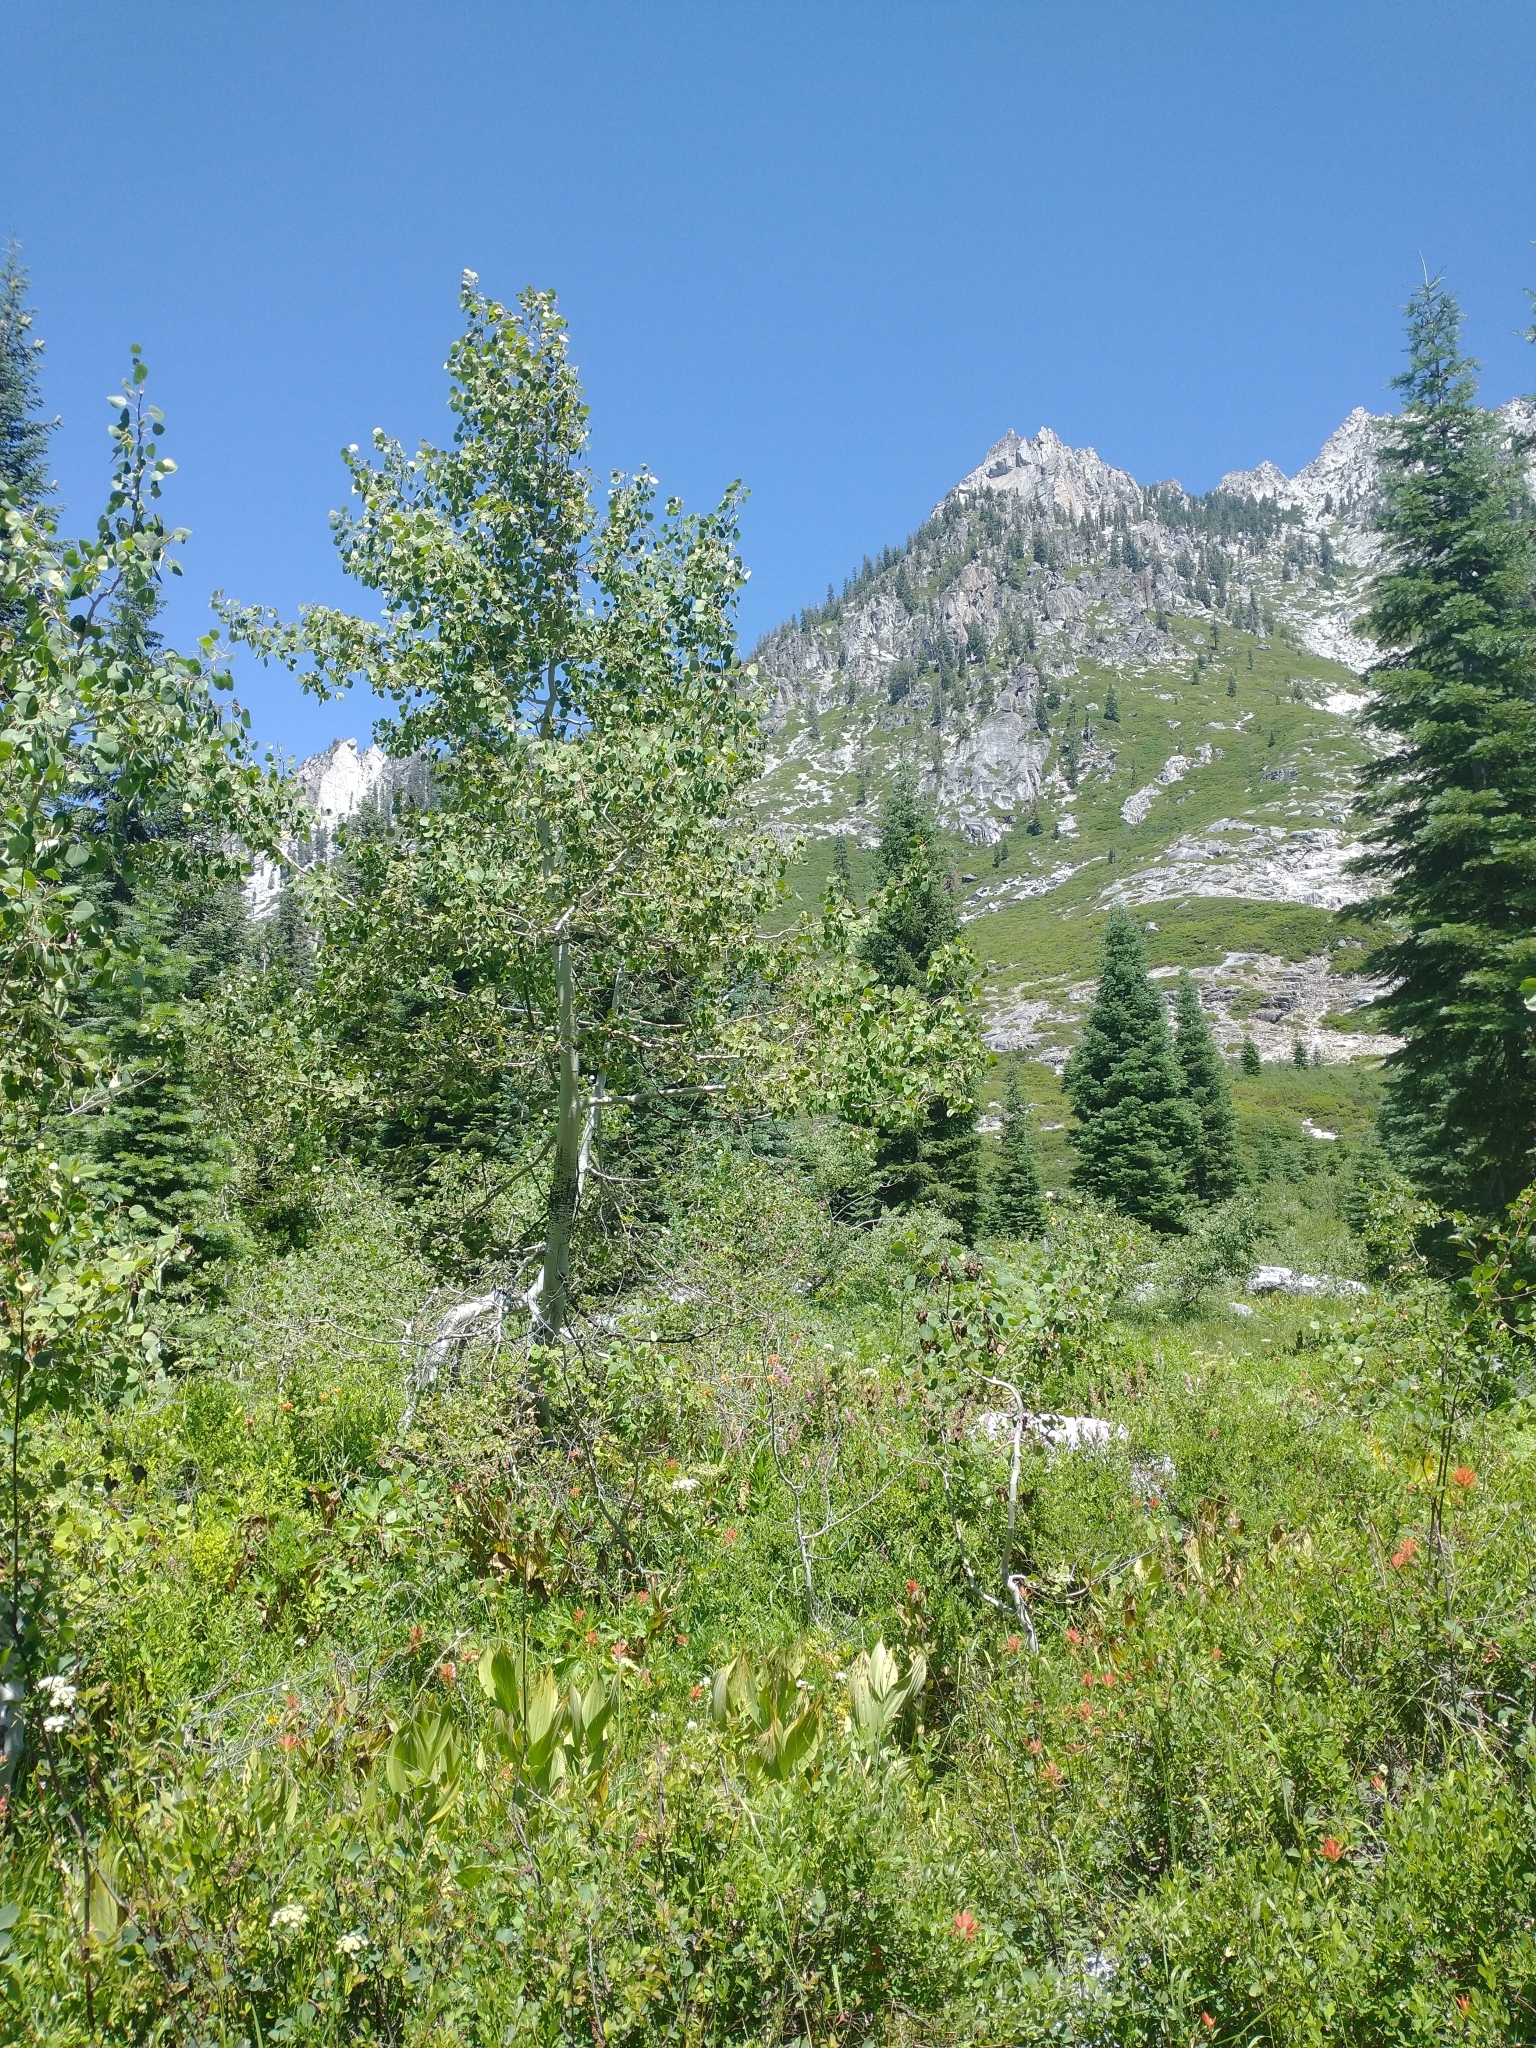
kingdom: Plantae
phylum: Tracheophyta
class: Magnoliopsida
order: Malpighiales
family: Salicaceae
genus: Populus
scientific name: Populus tremuloides
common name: Quaking aspen
